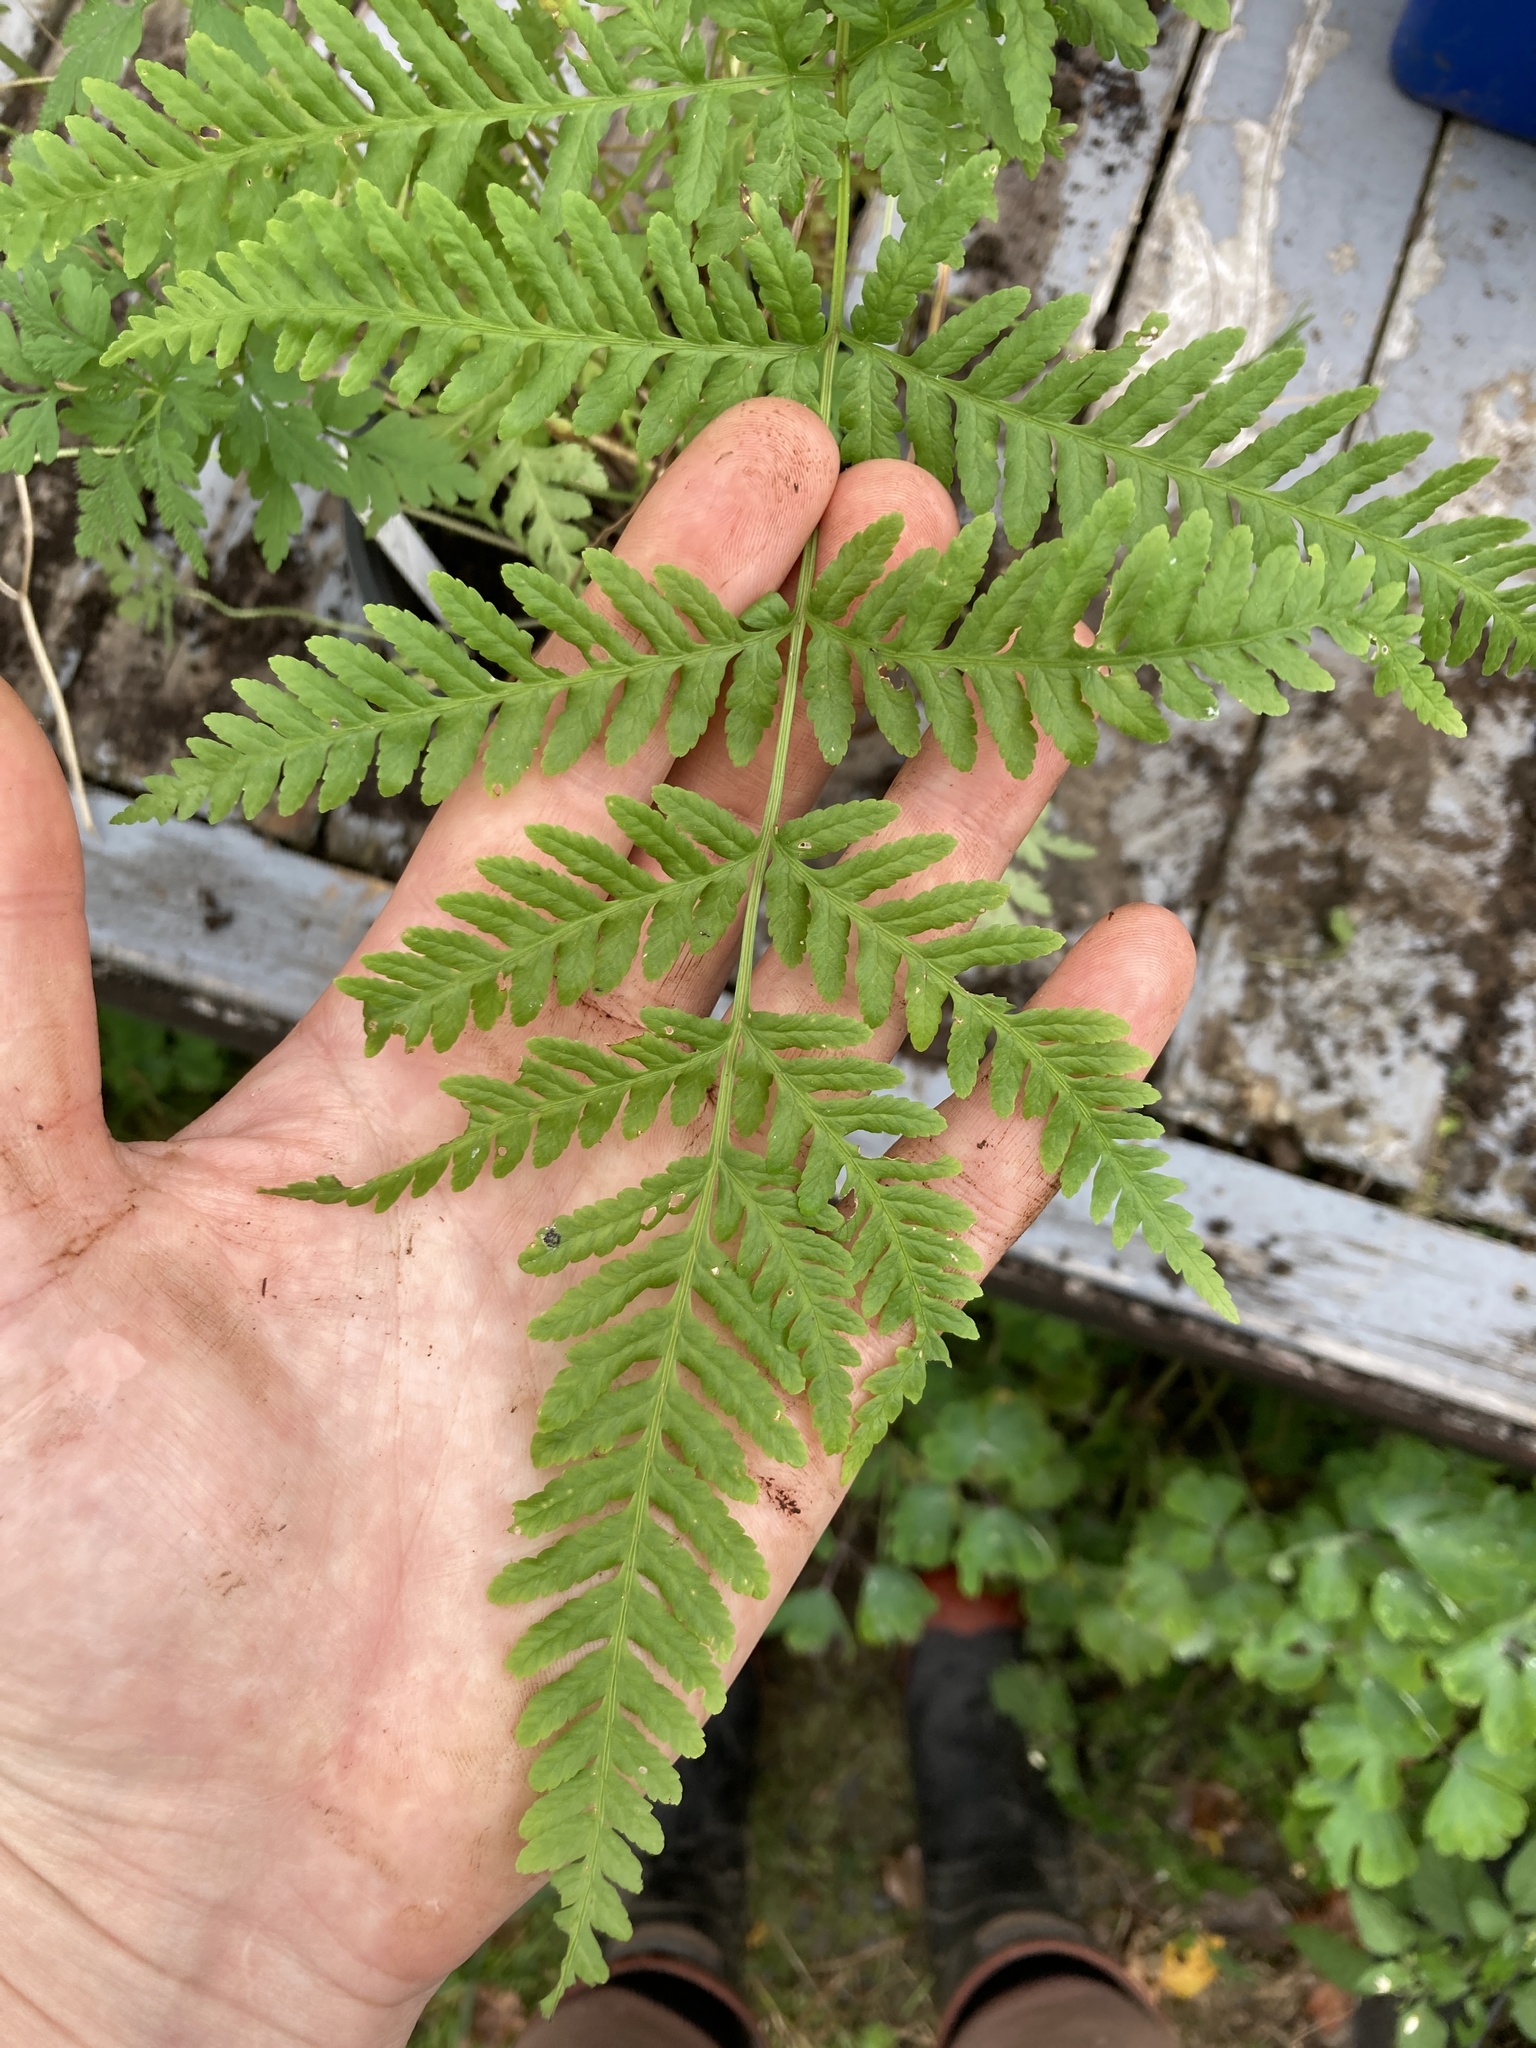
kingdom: Plantae
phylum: Tracheophyta
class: Polypodiopsida
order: Polypodiales
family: Pteridaceae
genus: Pteris
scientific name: Pteris tremula
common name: Australian brake
